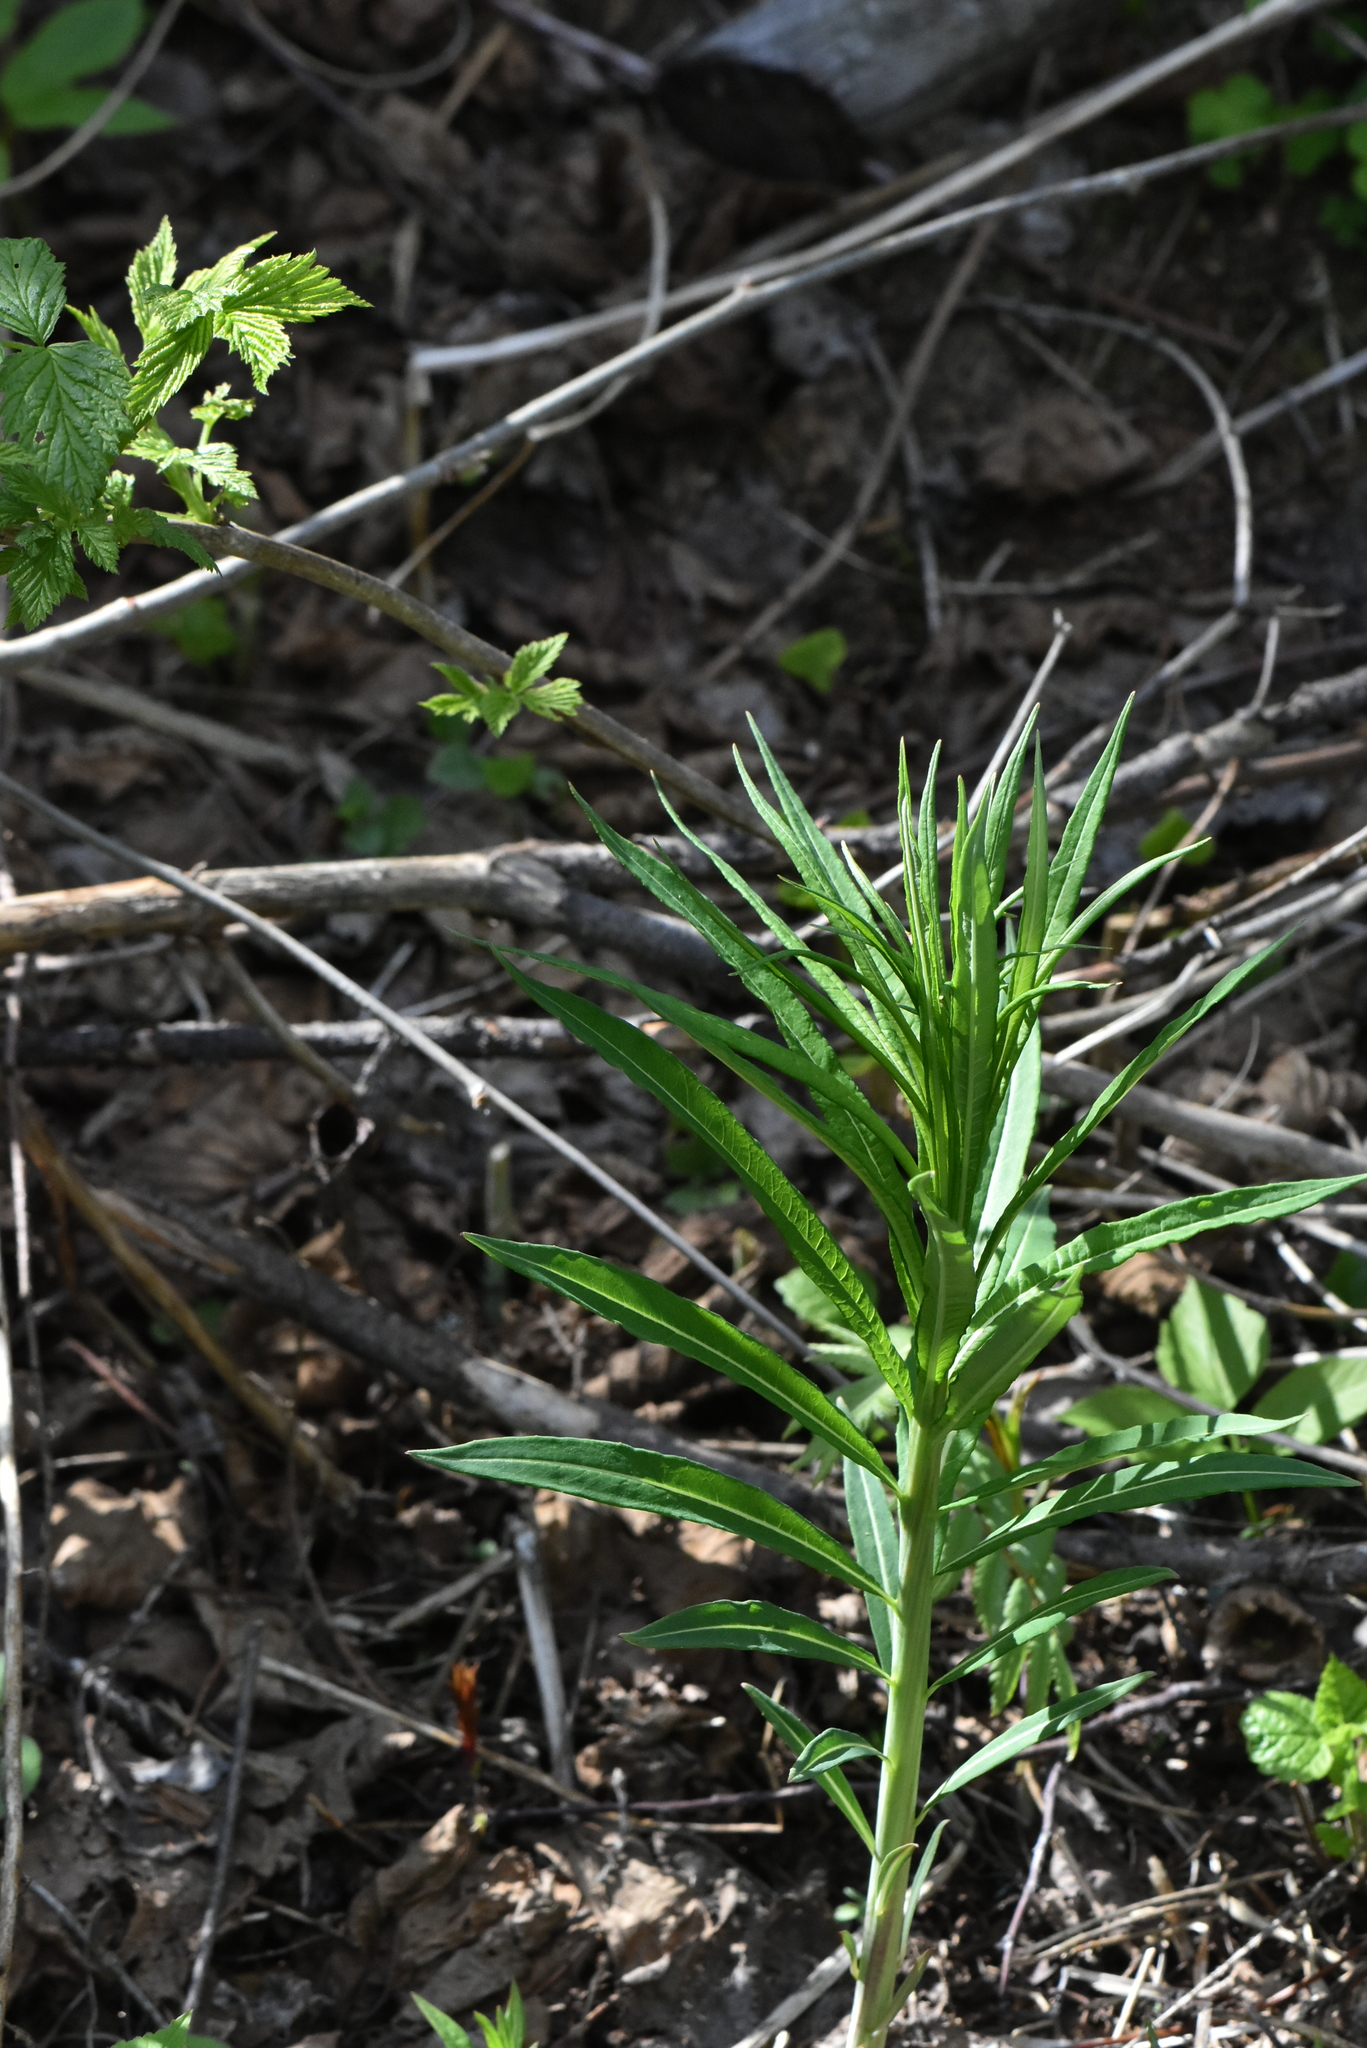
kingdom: Plantae
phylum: Tracheophyta
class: Magnoliopsida
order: Myrtales
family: Onagraceae
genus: Chamaenerion
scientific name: Chamaenerion angustifolium
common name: Fireweed
